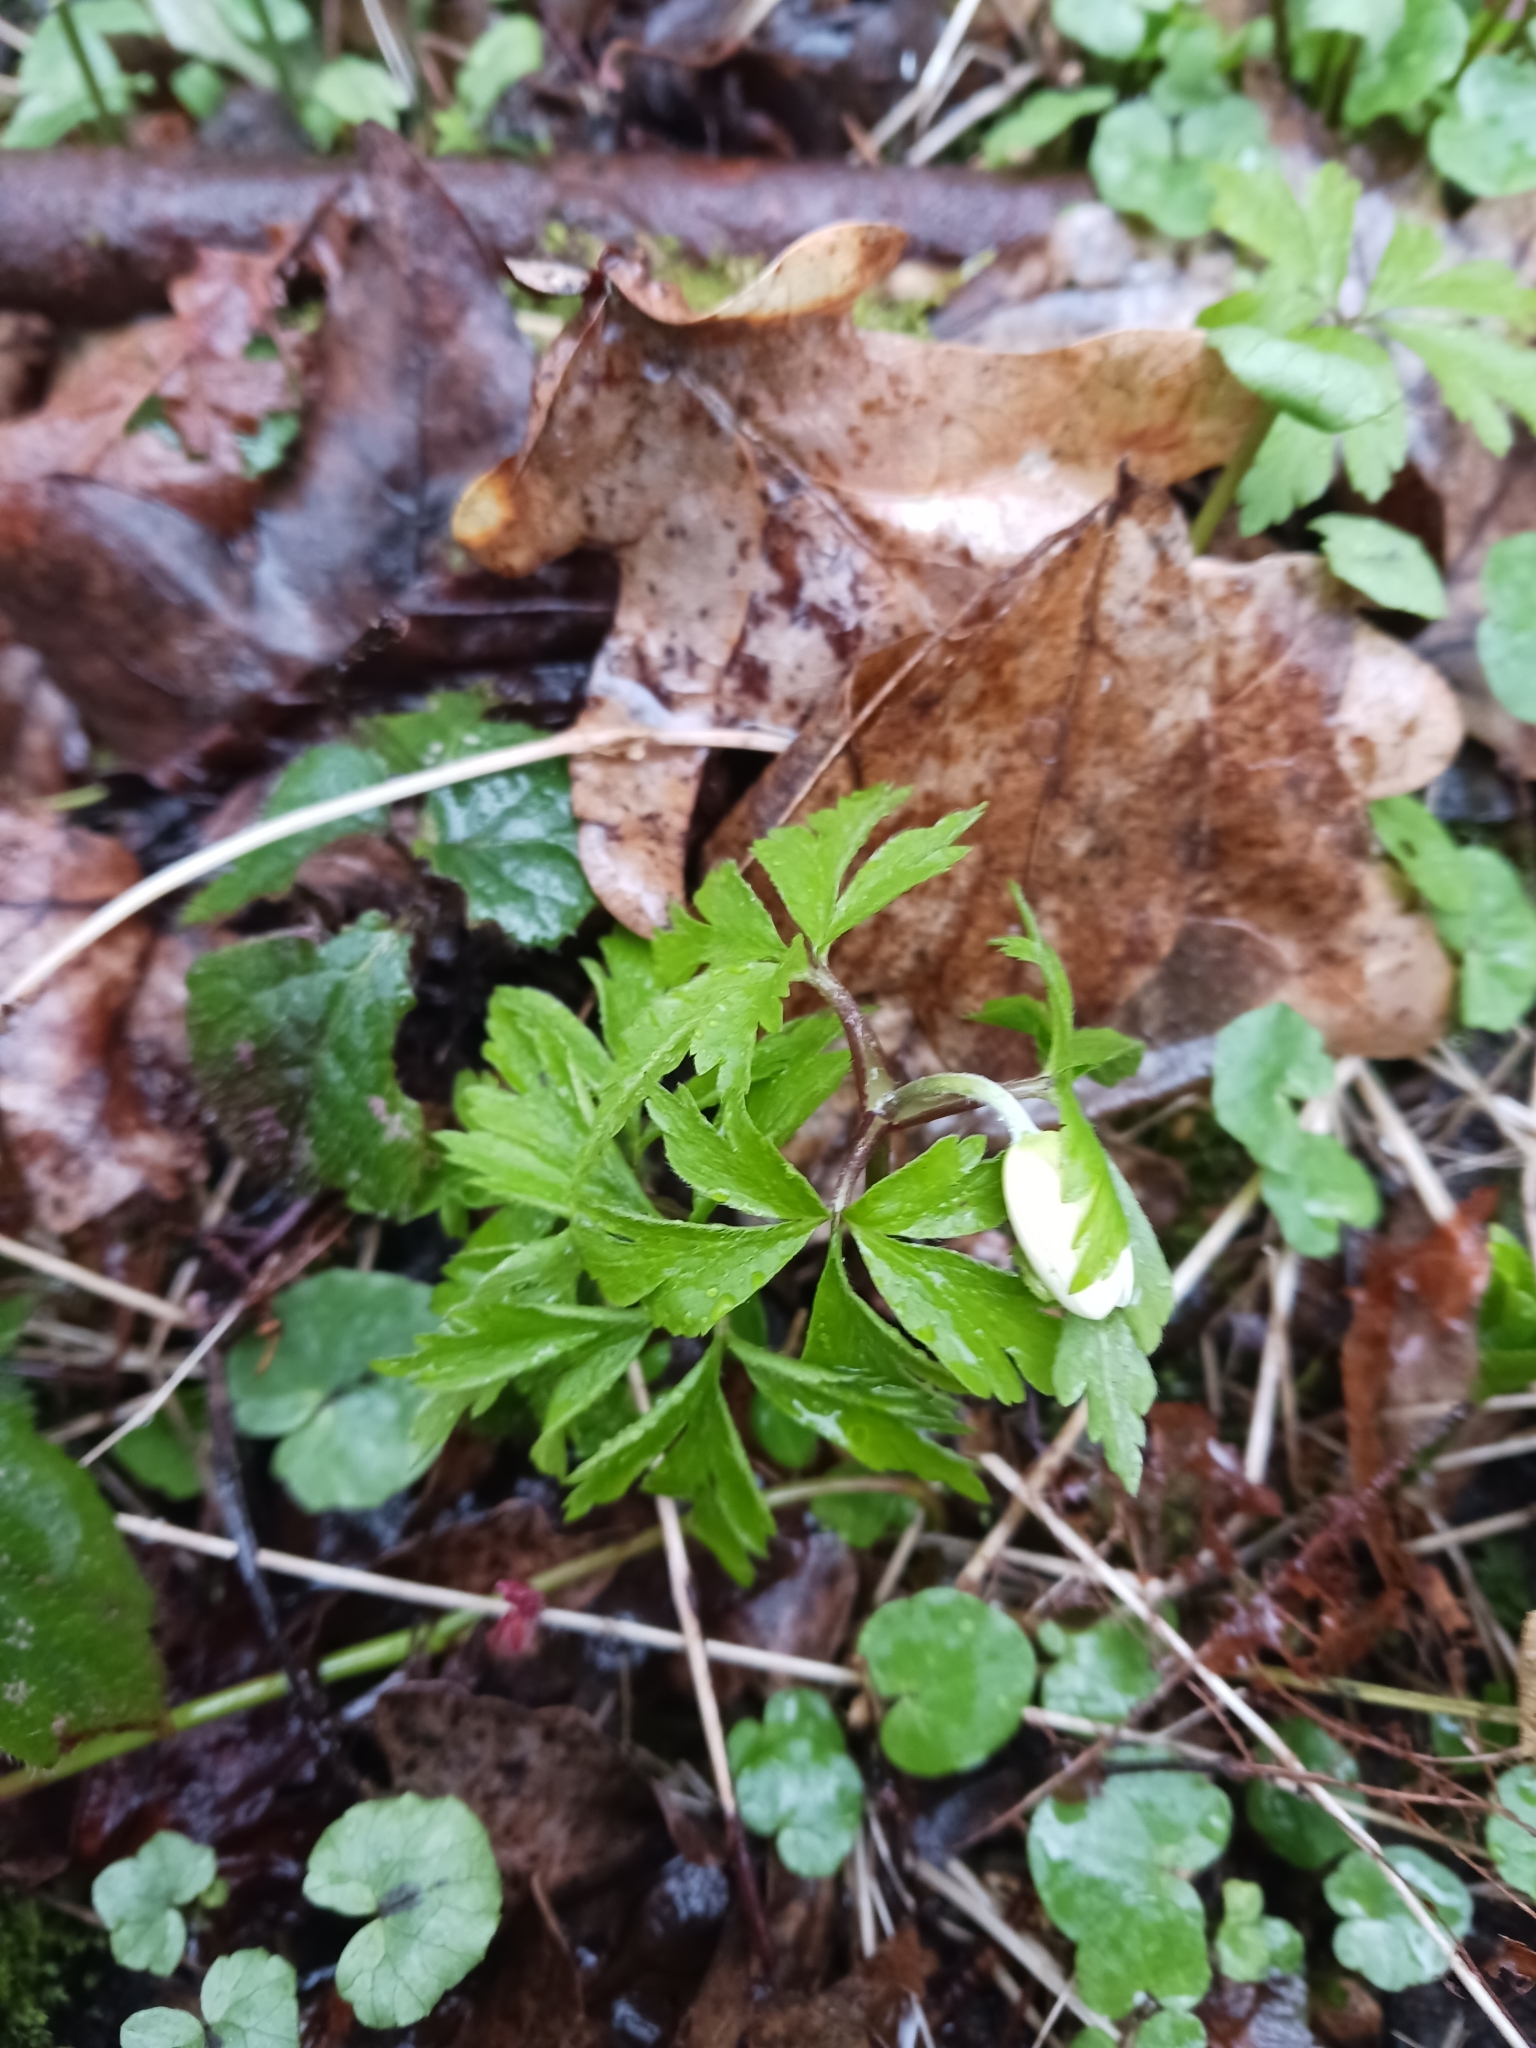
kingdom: Plantae
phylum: Tracheophyta
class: Magnoliopsida
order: Ranunculales
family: Ranunculaceae
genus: Anemone
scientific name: Anemone nemorosa
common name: Wood anemone
